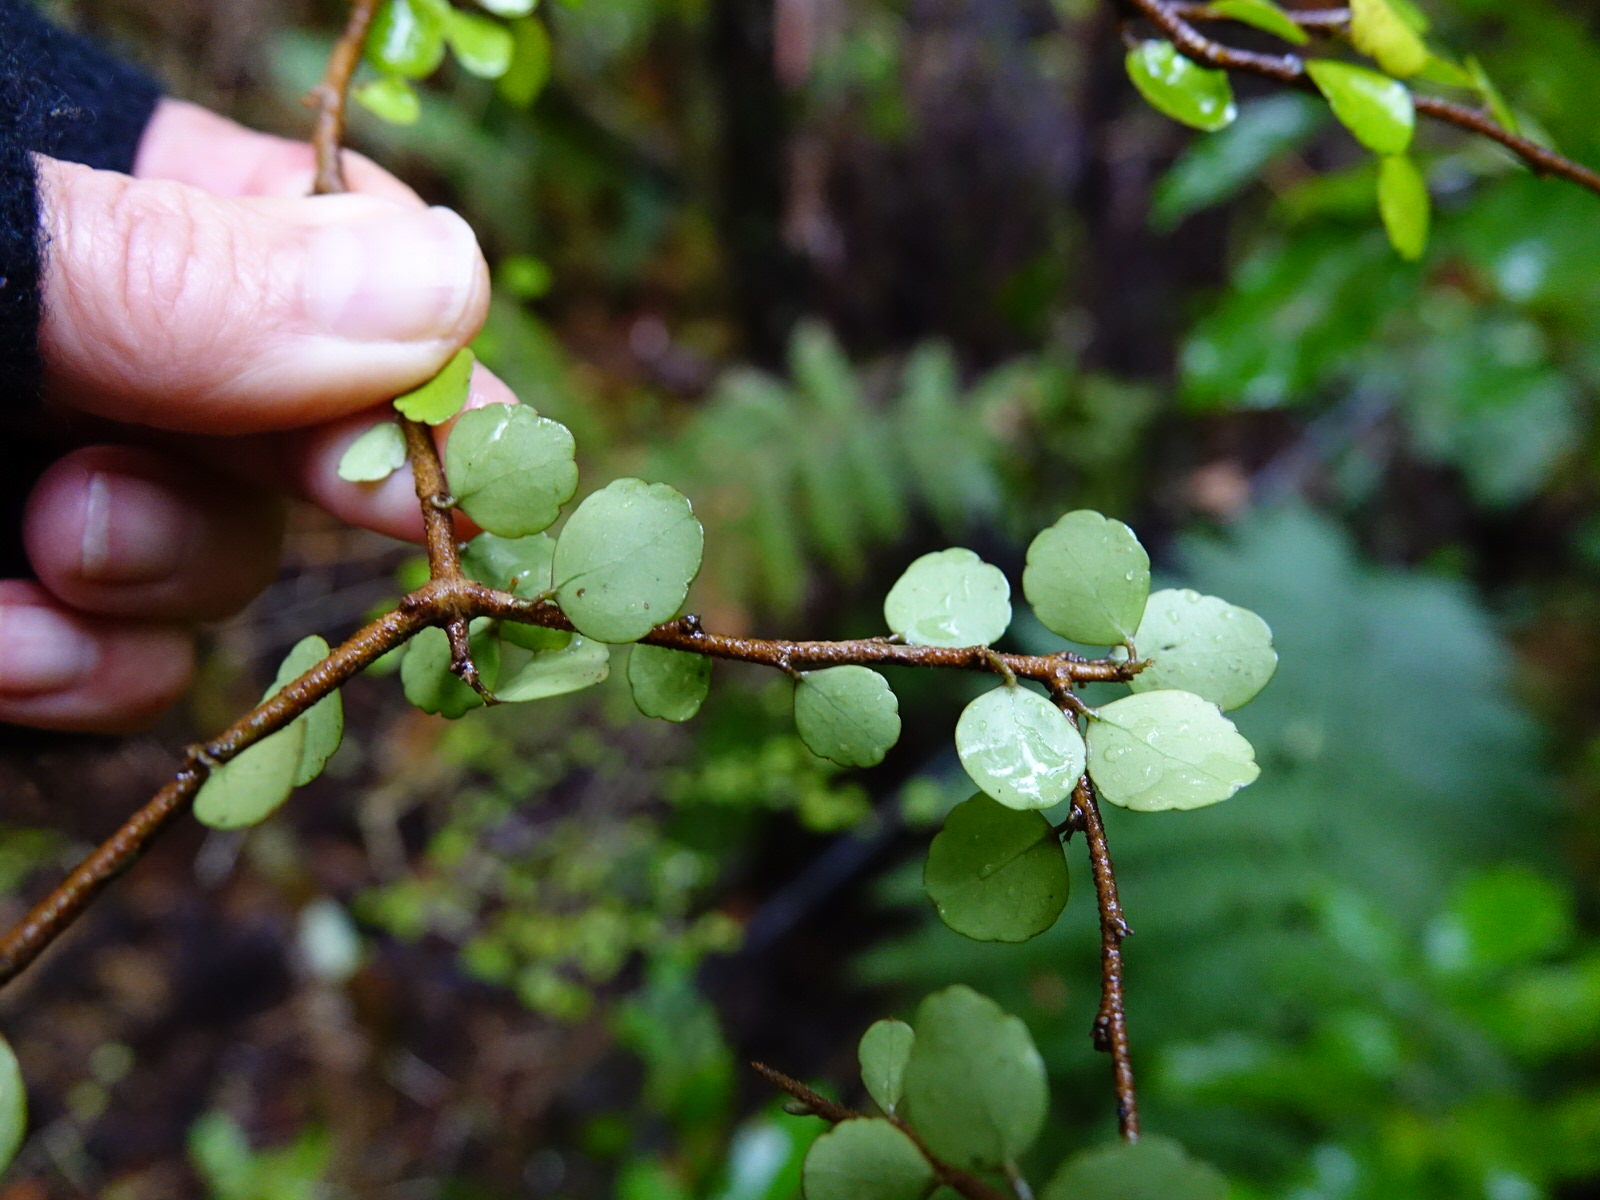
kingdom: Plantae
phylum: Tracheophyta
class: Magnoliopsida
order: Apiales
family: Araliaceae
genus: Raukaua
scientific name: Raukaua anomalus
